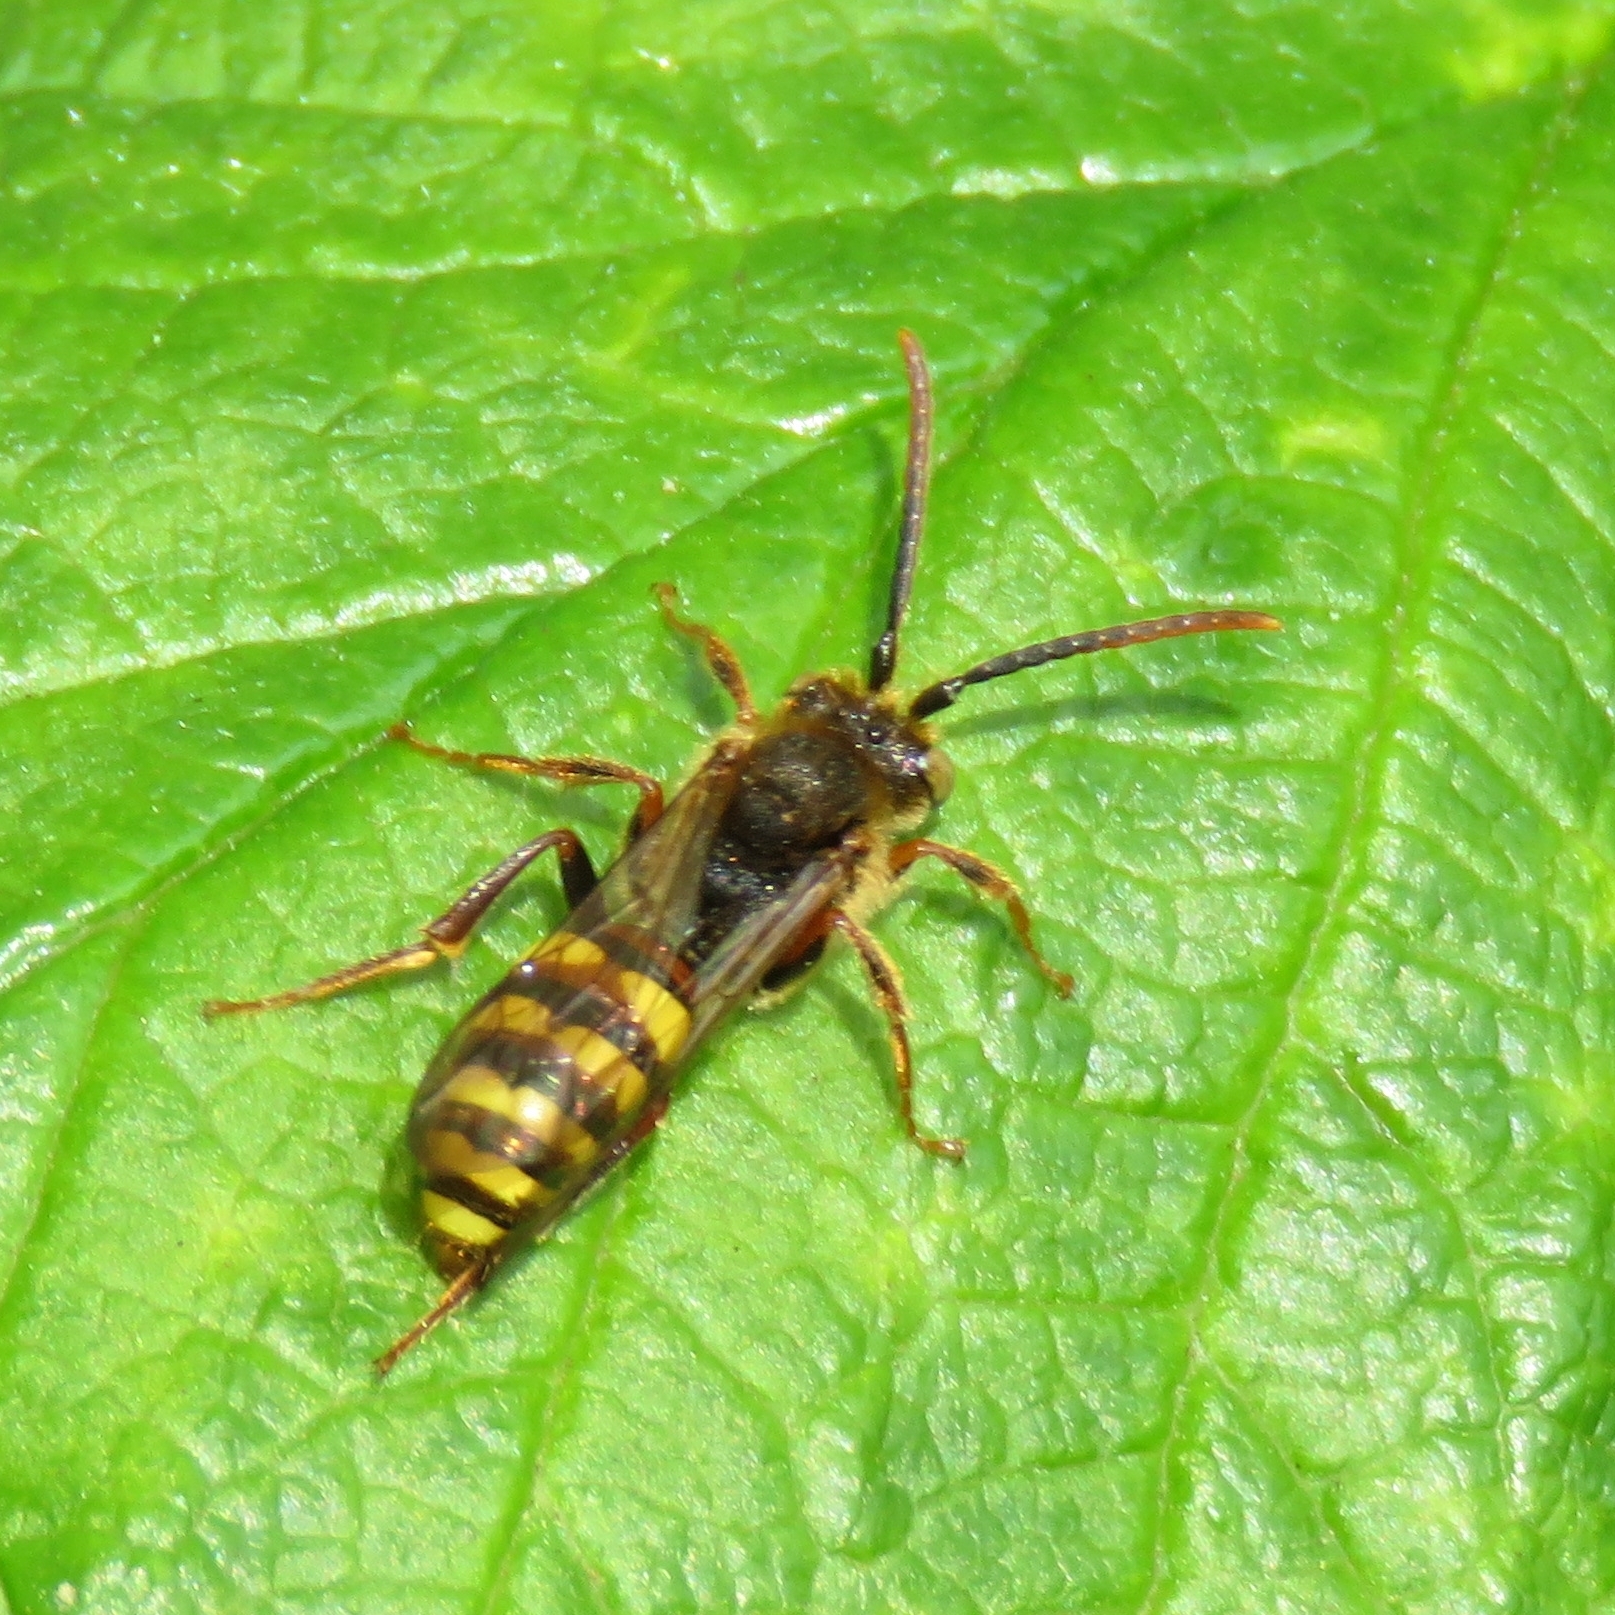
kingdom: Animalia
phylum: Arthropoda
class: Insecta
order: Hymenoptera
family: Apidae
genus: Nomada
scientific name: Nomada leucophthalma
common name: Early nomad bee
